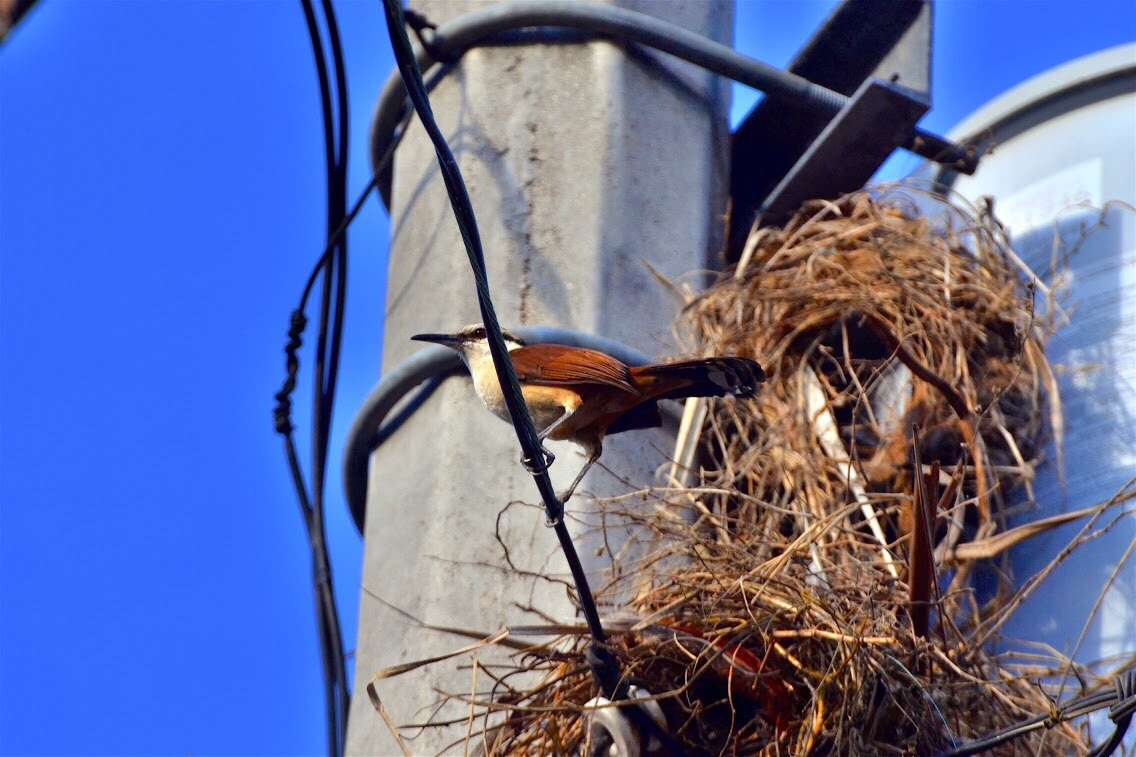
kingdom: Animalia
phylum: Chordata
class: Aves
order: Passeriformes
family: Troglodytidae
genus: Campylorhynchus
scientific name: Campylorhynchus chiapensis
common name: Giant wren
